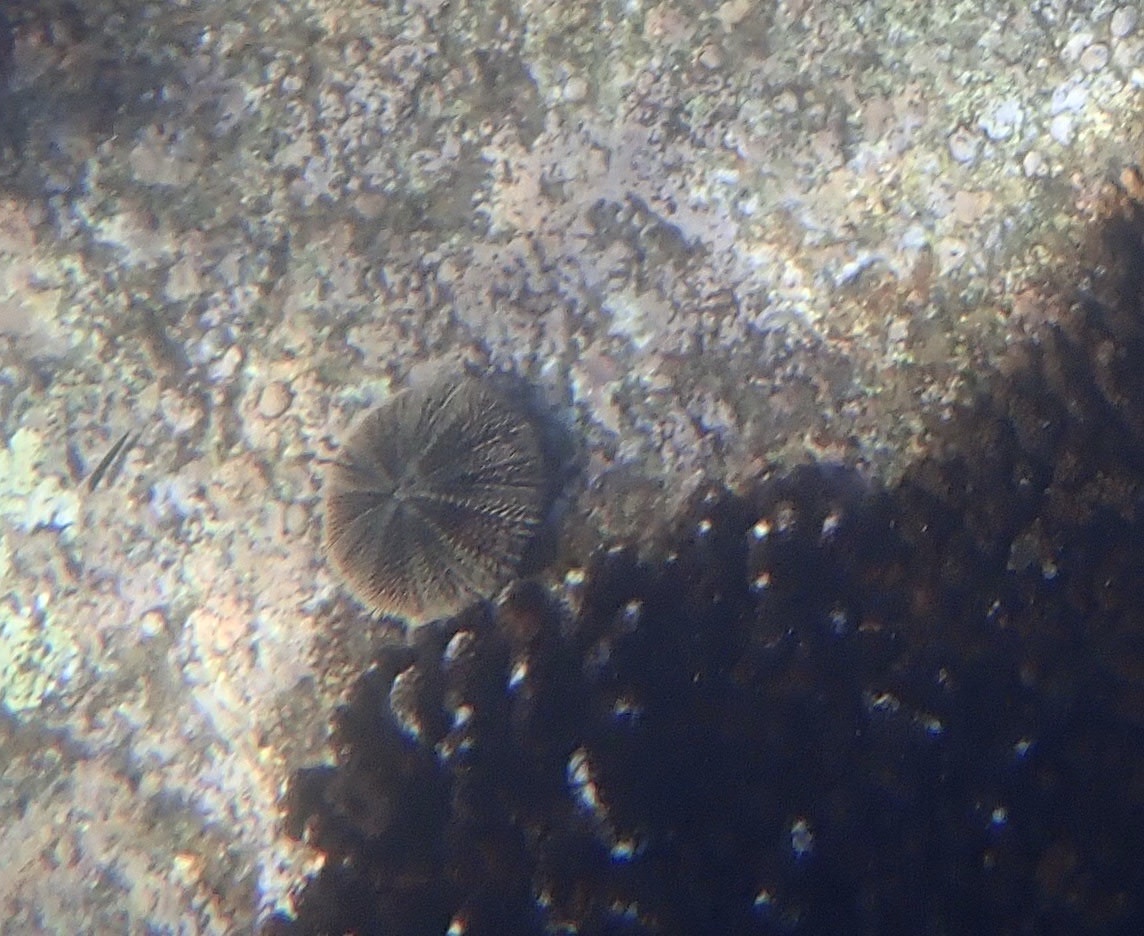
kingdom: Animalia
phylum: Echinodermata
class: Echinoidea
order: Camarodonta
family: Toxopneustidae
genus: Tripneustes
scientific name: Tripneustes depressus
